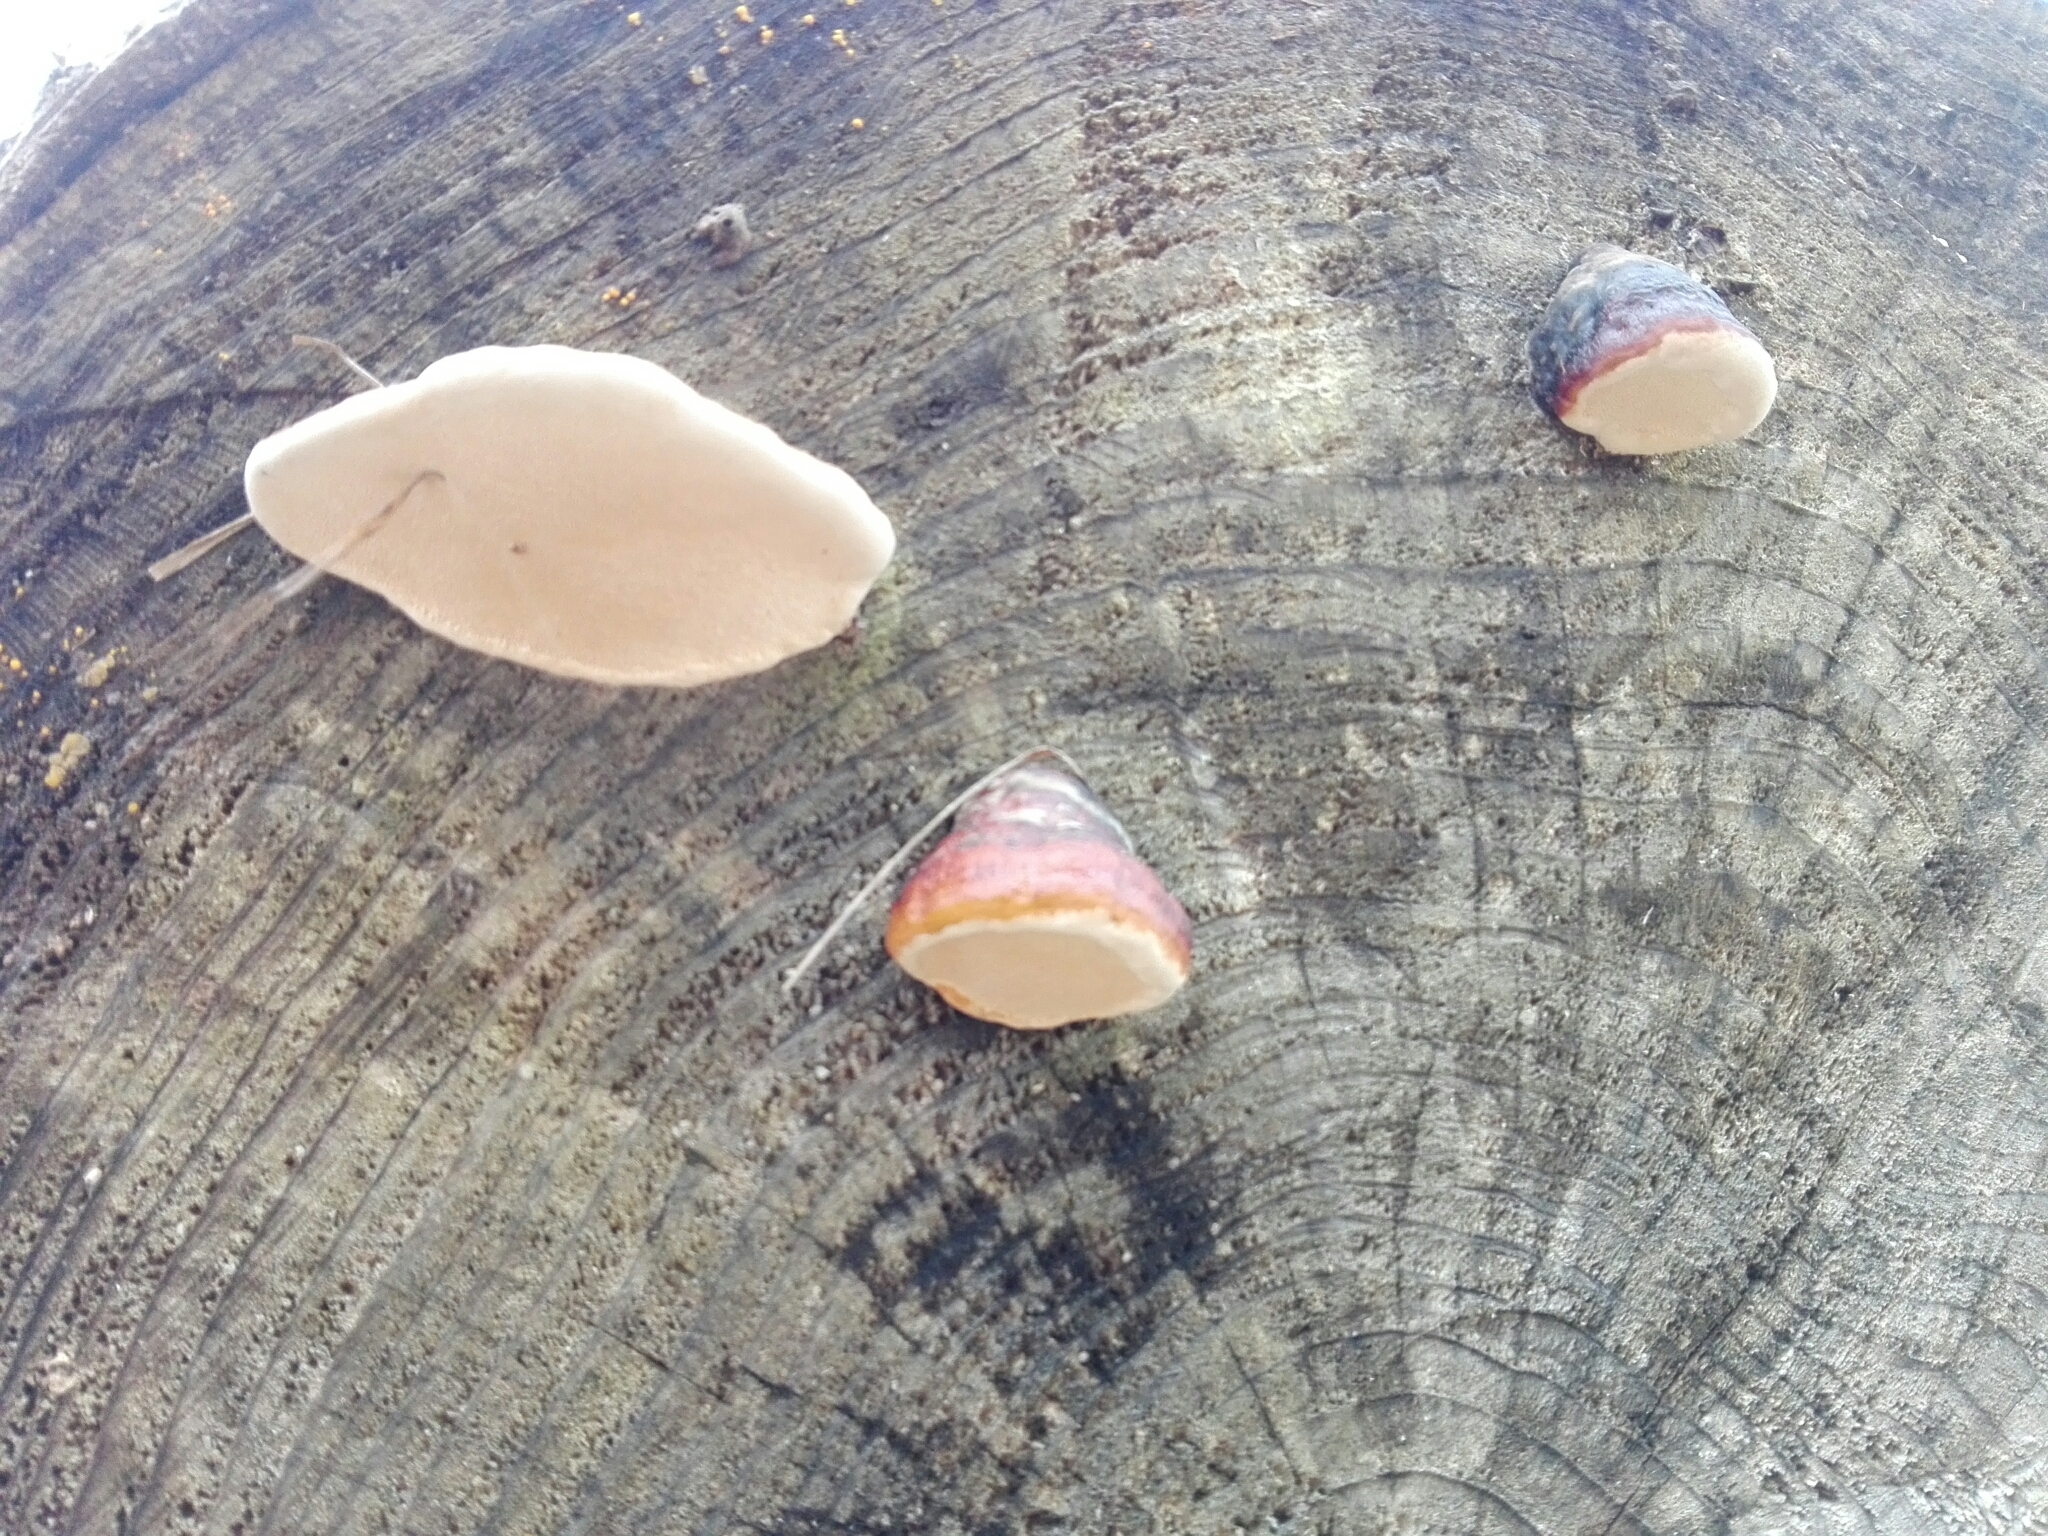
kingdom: Fungi
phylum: Basidiomycota
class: Agaricomycetes
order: Polyporales
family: Fomitopsidaceae
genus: Fomitopsis
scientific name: Fomitopsis pinicola
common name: Red-belted bracket
